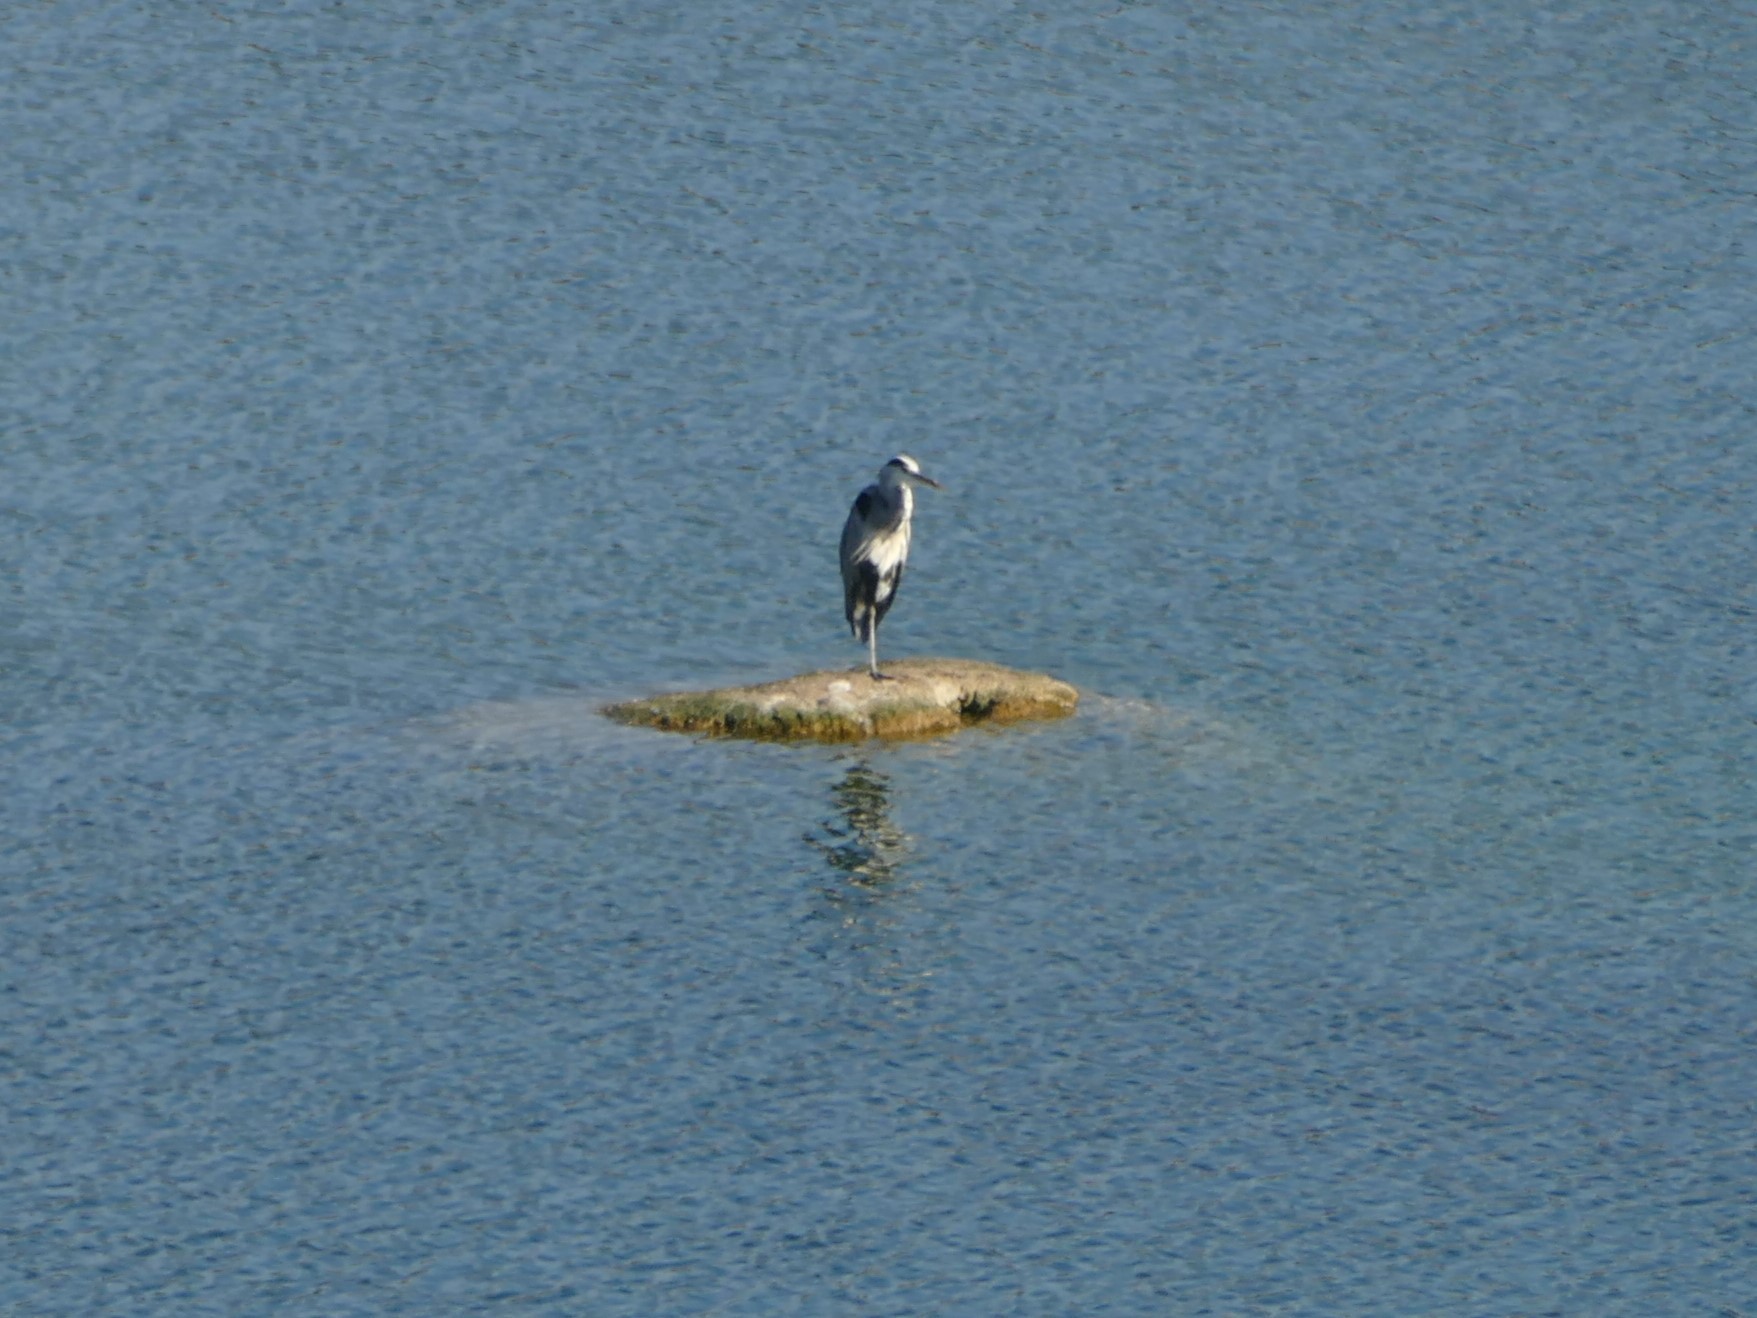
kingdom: Animalia
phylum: Chordata
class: Aves
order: Pelecaniformes
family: Ardeidae
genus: Ardea
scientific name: Ardea cinerea
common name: Grey heron
